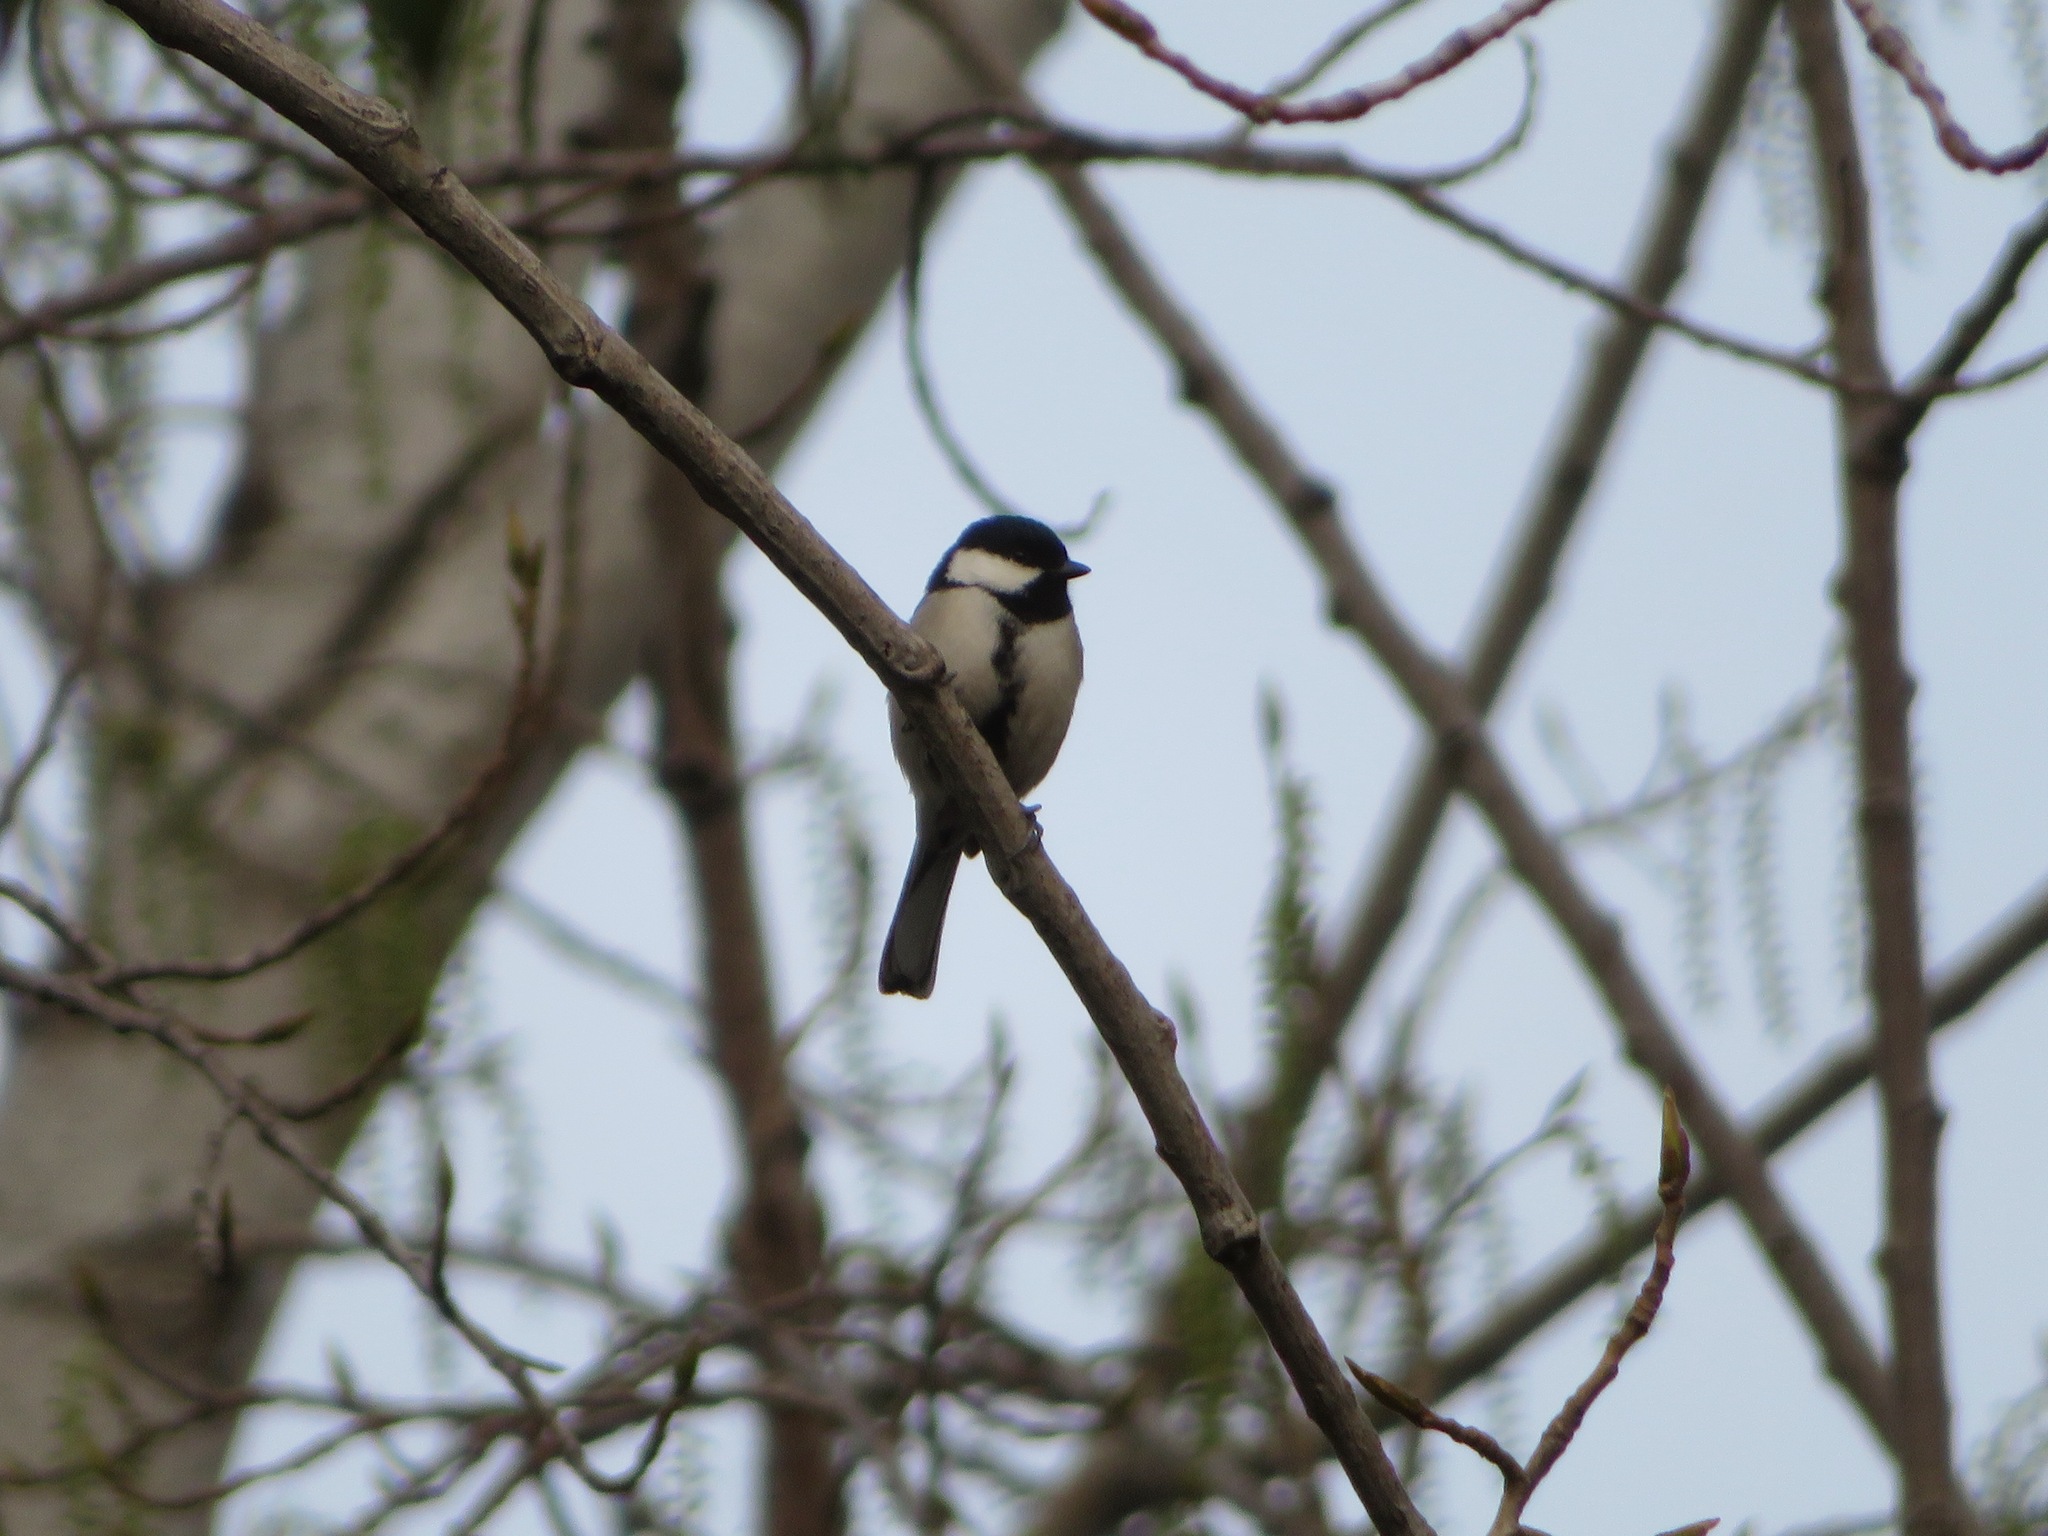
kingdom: Animalia
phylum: Chordata
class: Aves
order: Passeriformes
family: Paridae
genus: Parus
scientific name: Parus minor
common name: Japanese tit
